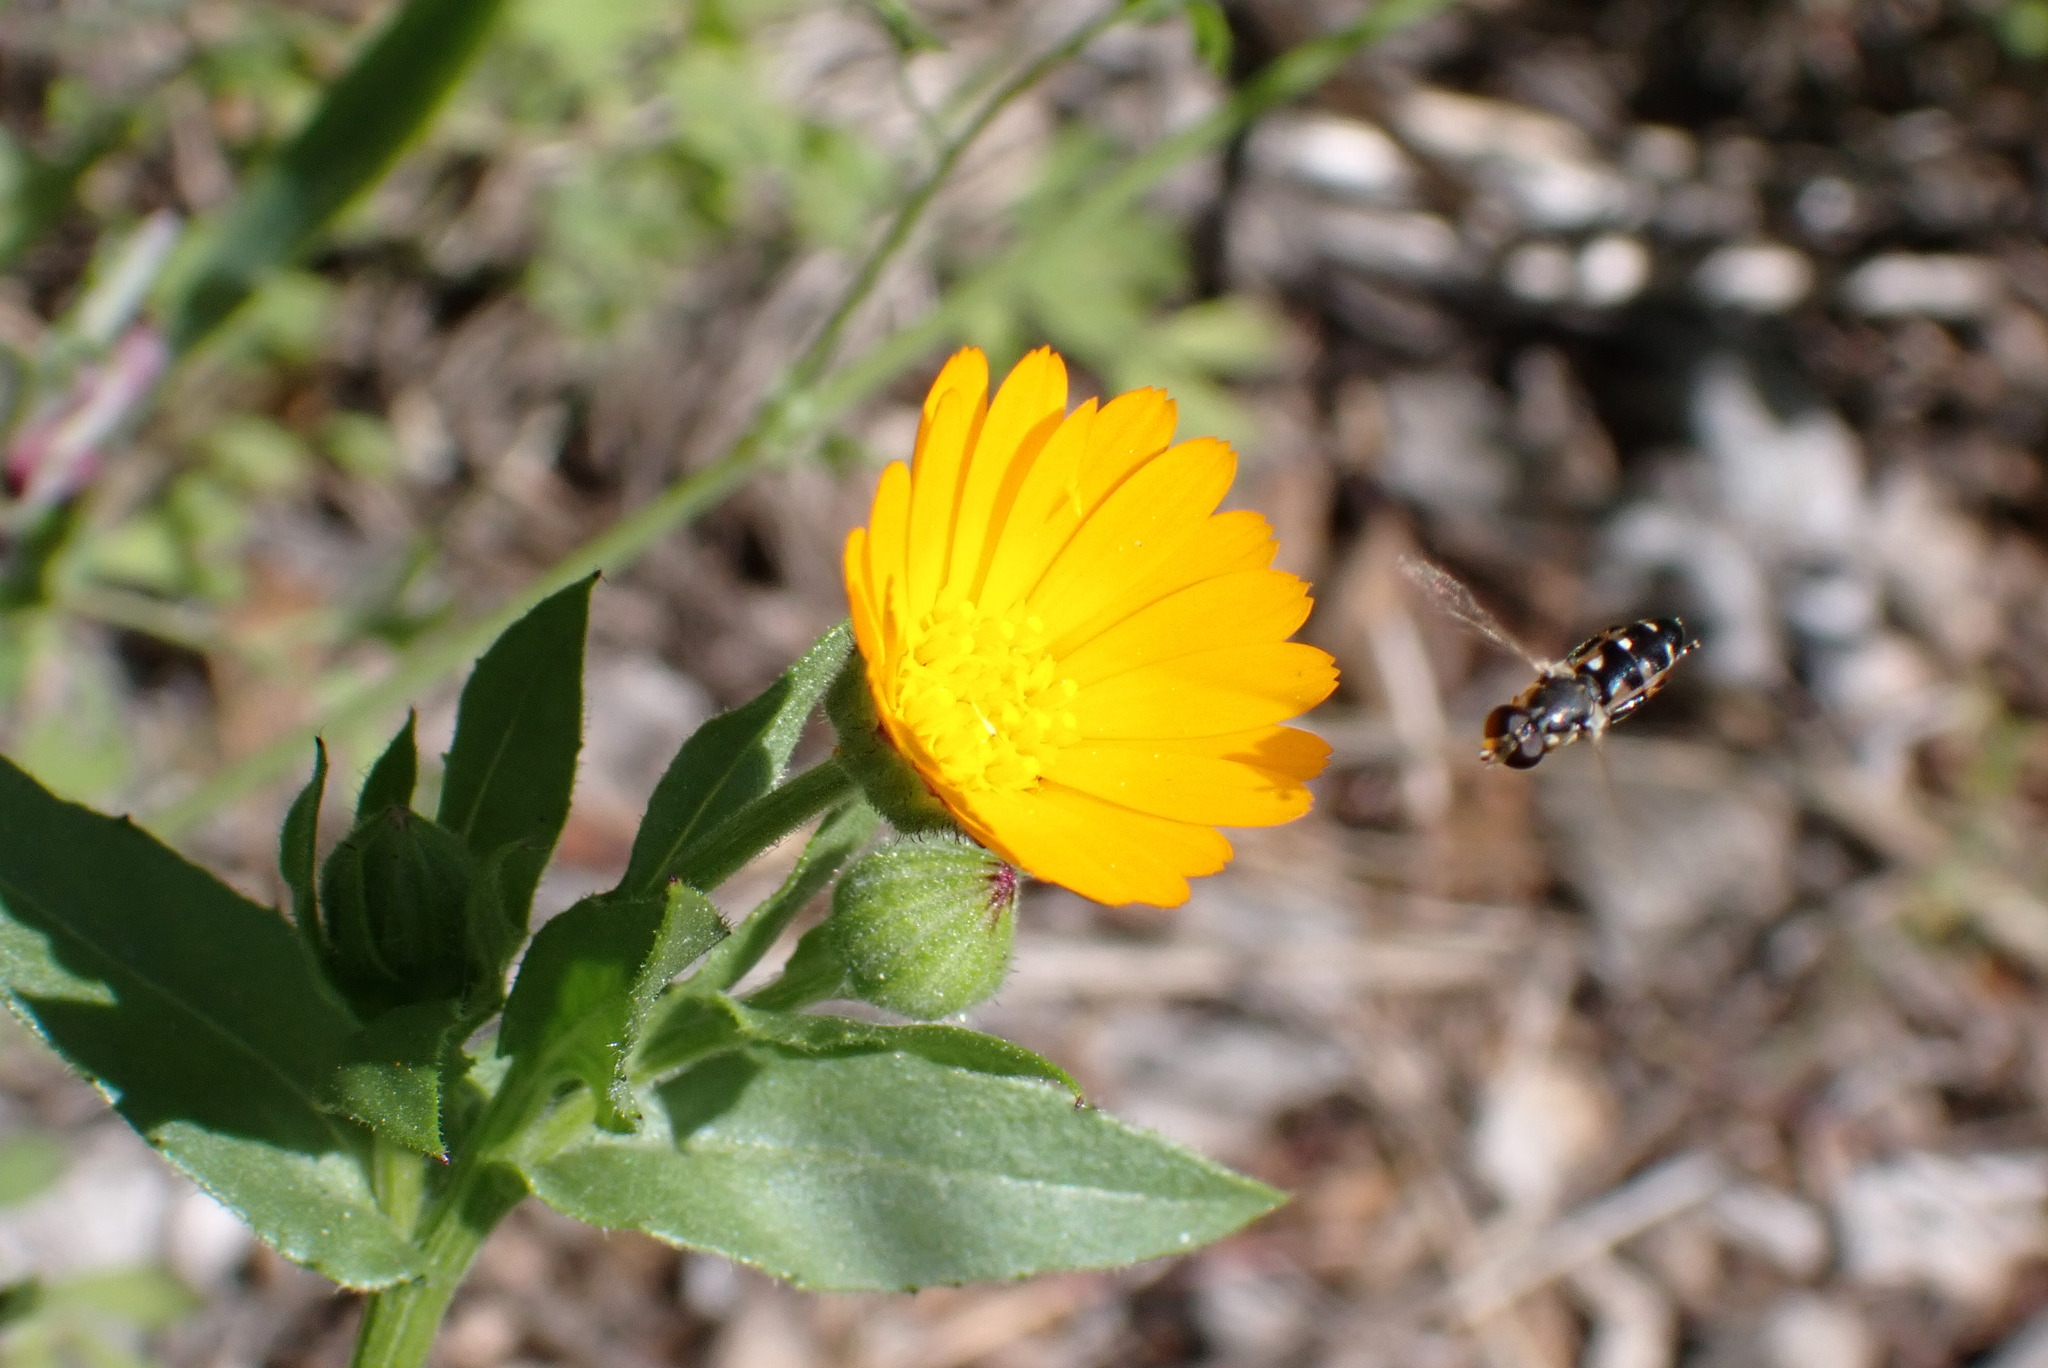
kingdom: Animalia
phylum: Arthropoda
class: Insecta
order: Diptera
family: Syrphidae
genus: Syritta
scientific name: Syritta pipiens
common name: Hover fly
